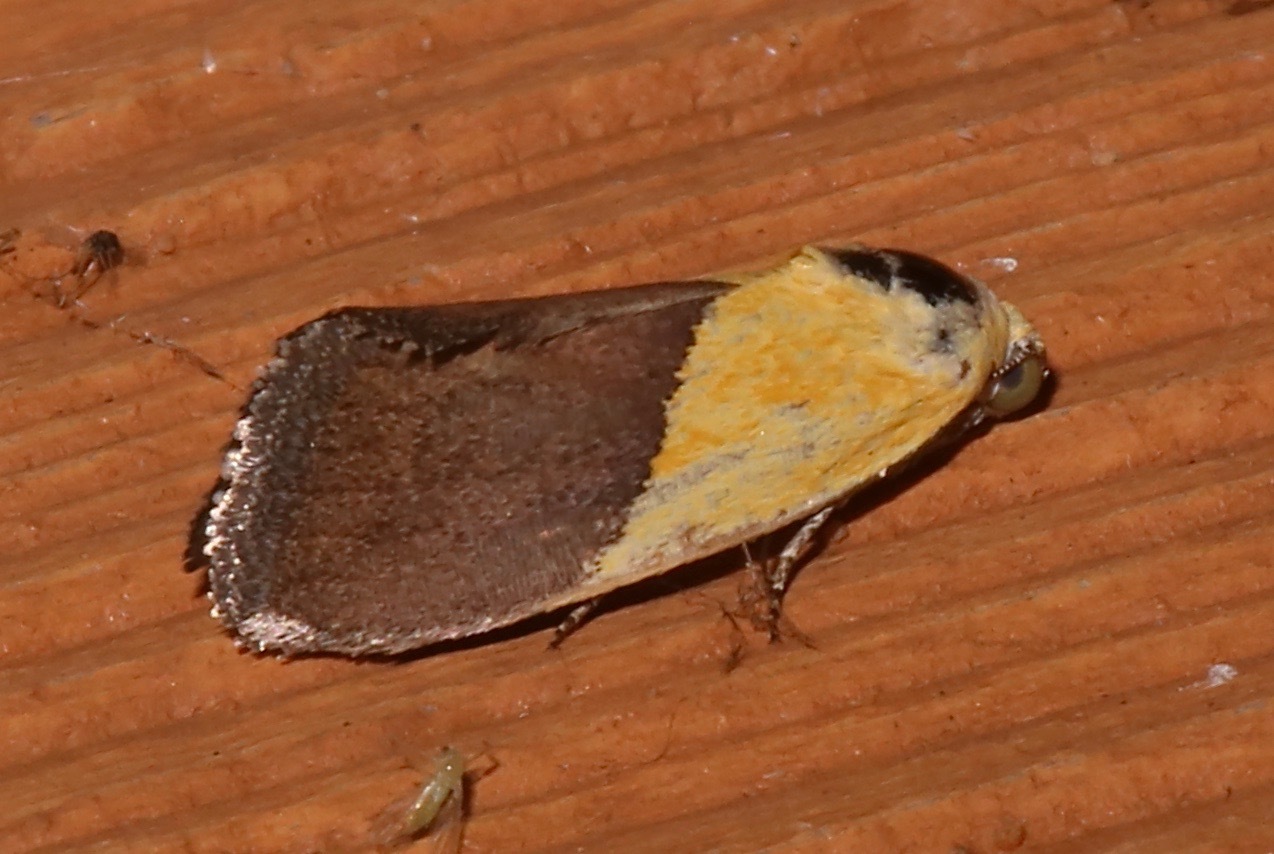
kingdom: Animalia
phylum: Arthropoda
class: Insecta
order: Lepidoptera
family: Noctuidae
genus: Acontia
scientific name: Acontia semiflava
